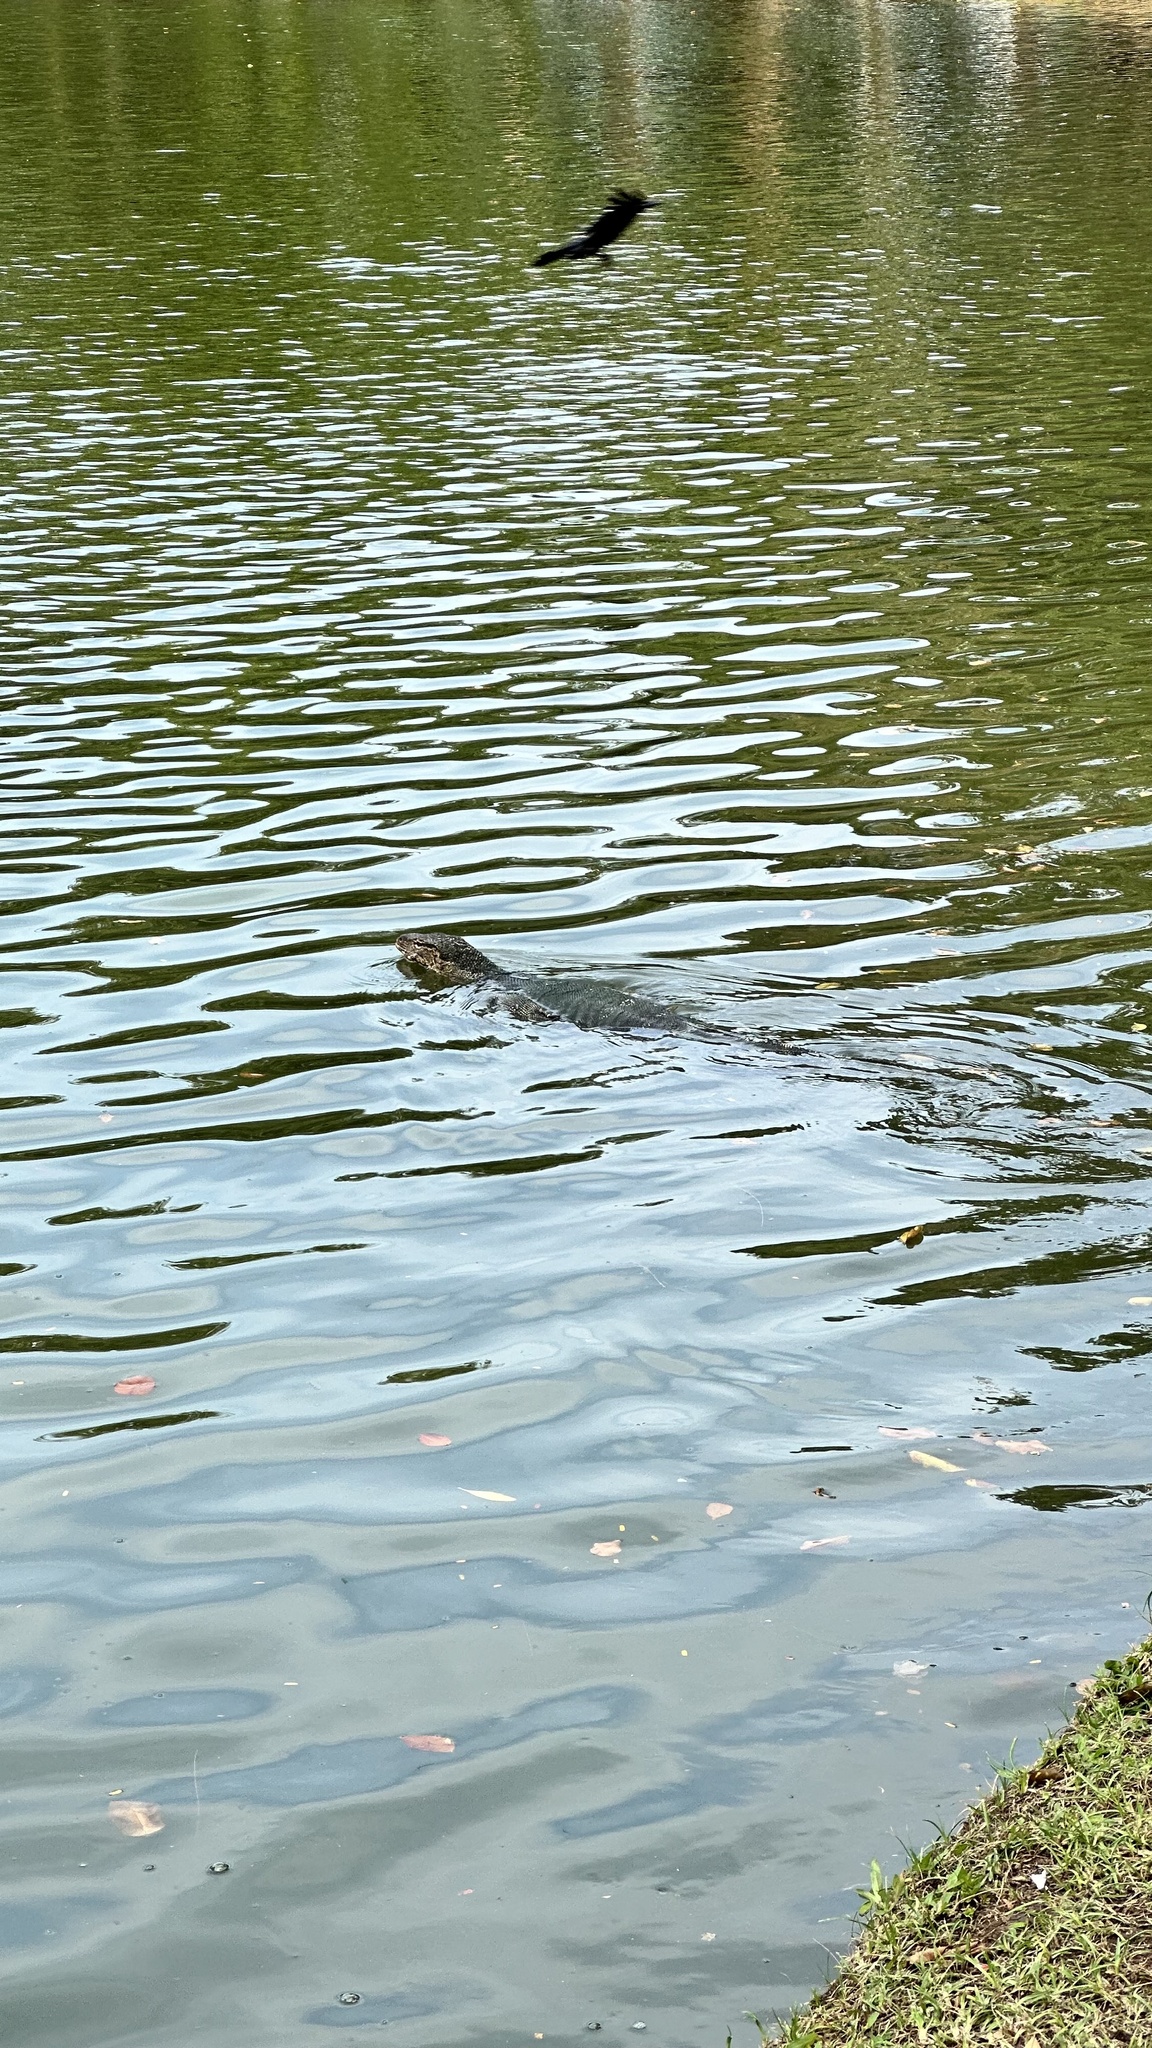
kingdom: Animalia
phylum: Chordata
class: Squamata
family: Varanidae
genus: Varanus
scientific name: Varanus salvator
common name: Common water monitor
